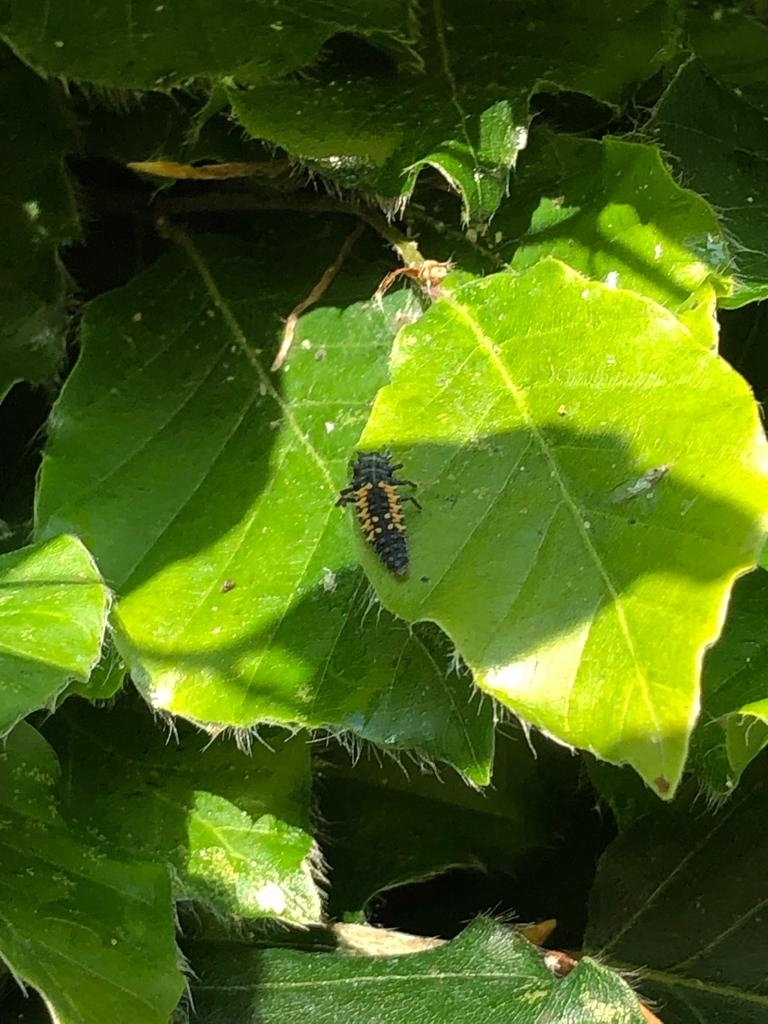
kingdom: Animalia
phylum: Arthropoda
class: Insecta
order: Coleoptera
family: Coccinellidae
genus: Harmonia
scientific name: Harmonia axyridis
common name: Harlequin ladybird
